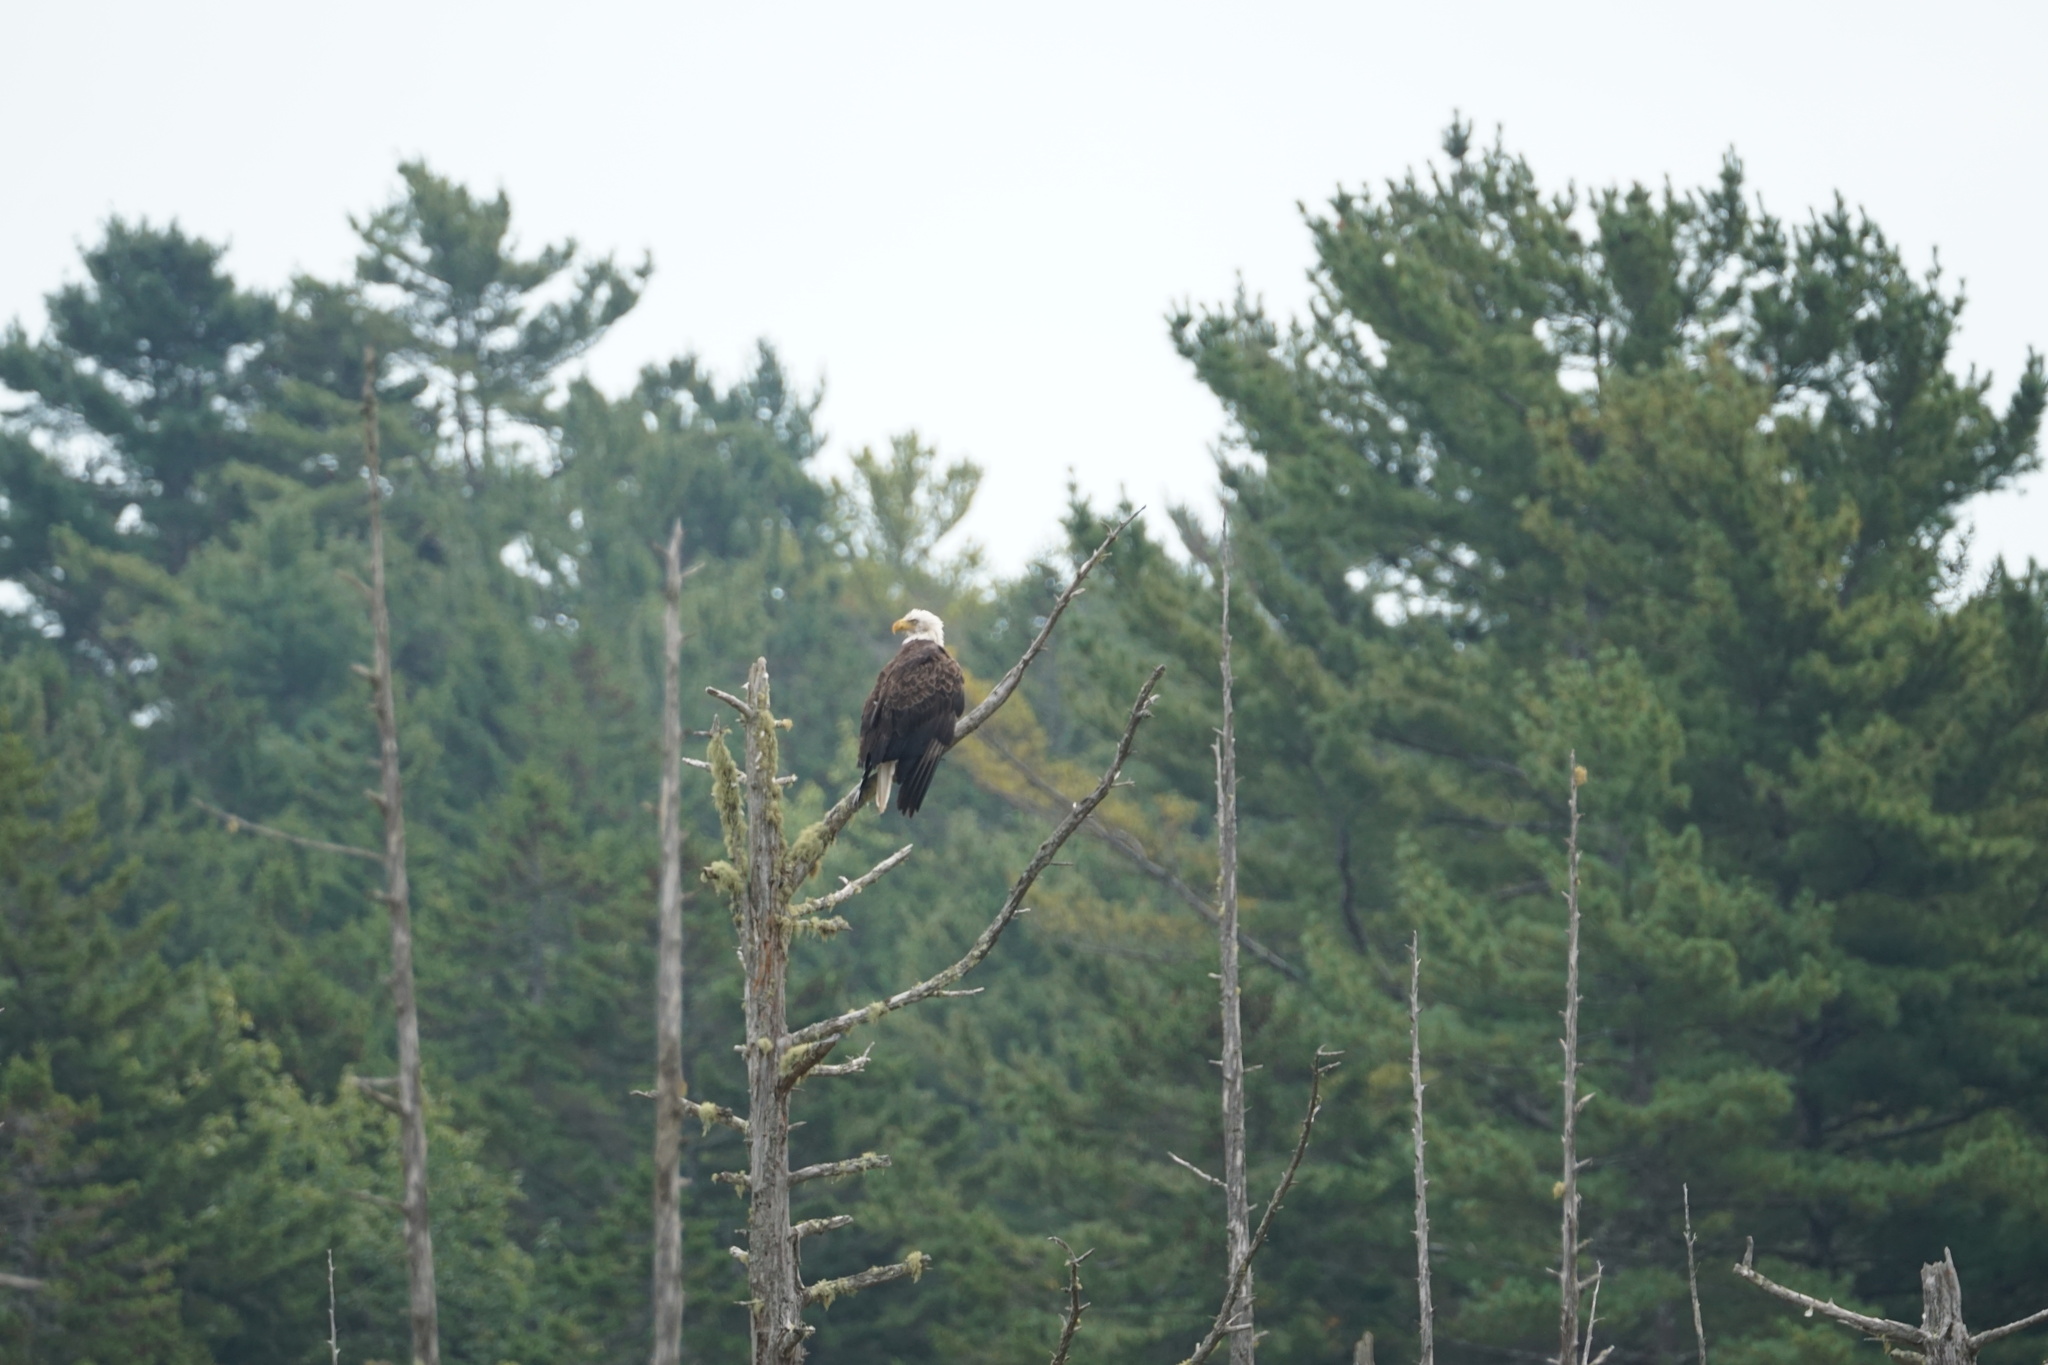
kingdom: Animalia
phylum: Chordata
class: Aves
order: Accipitriformes
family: Accipitridae
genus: Haliaeetus
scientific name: Haliaeetus leucocephalus
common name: Bald eagle
